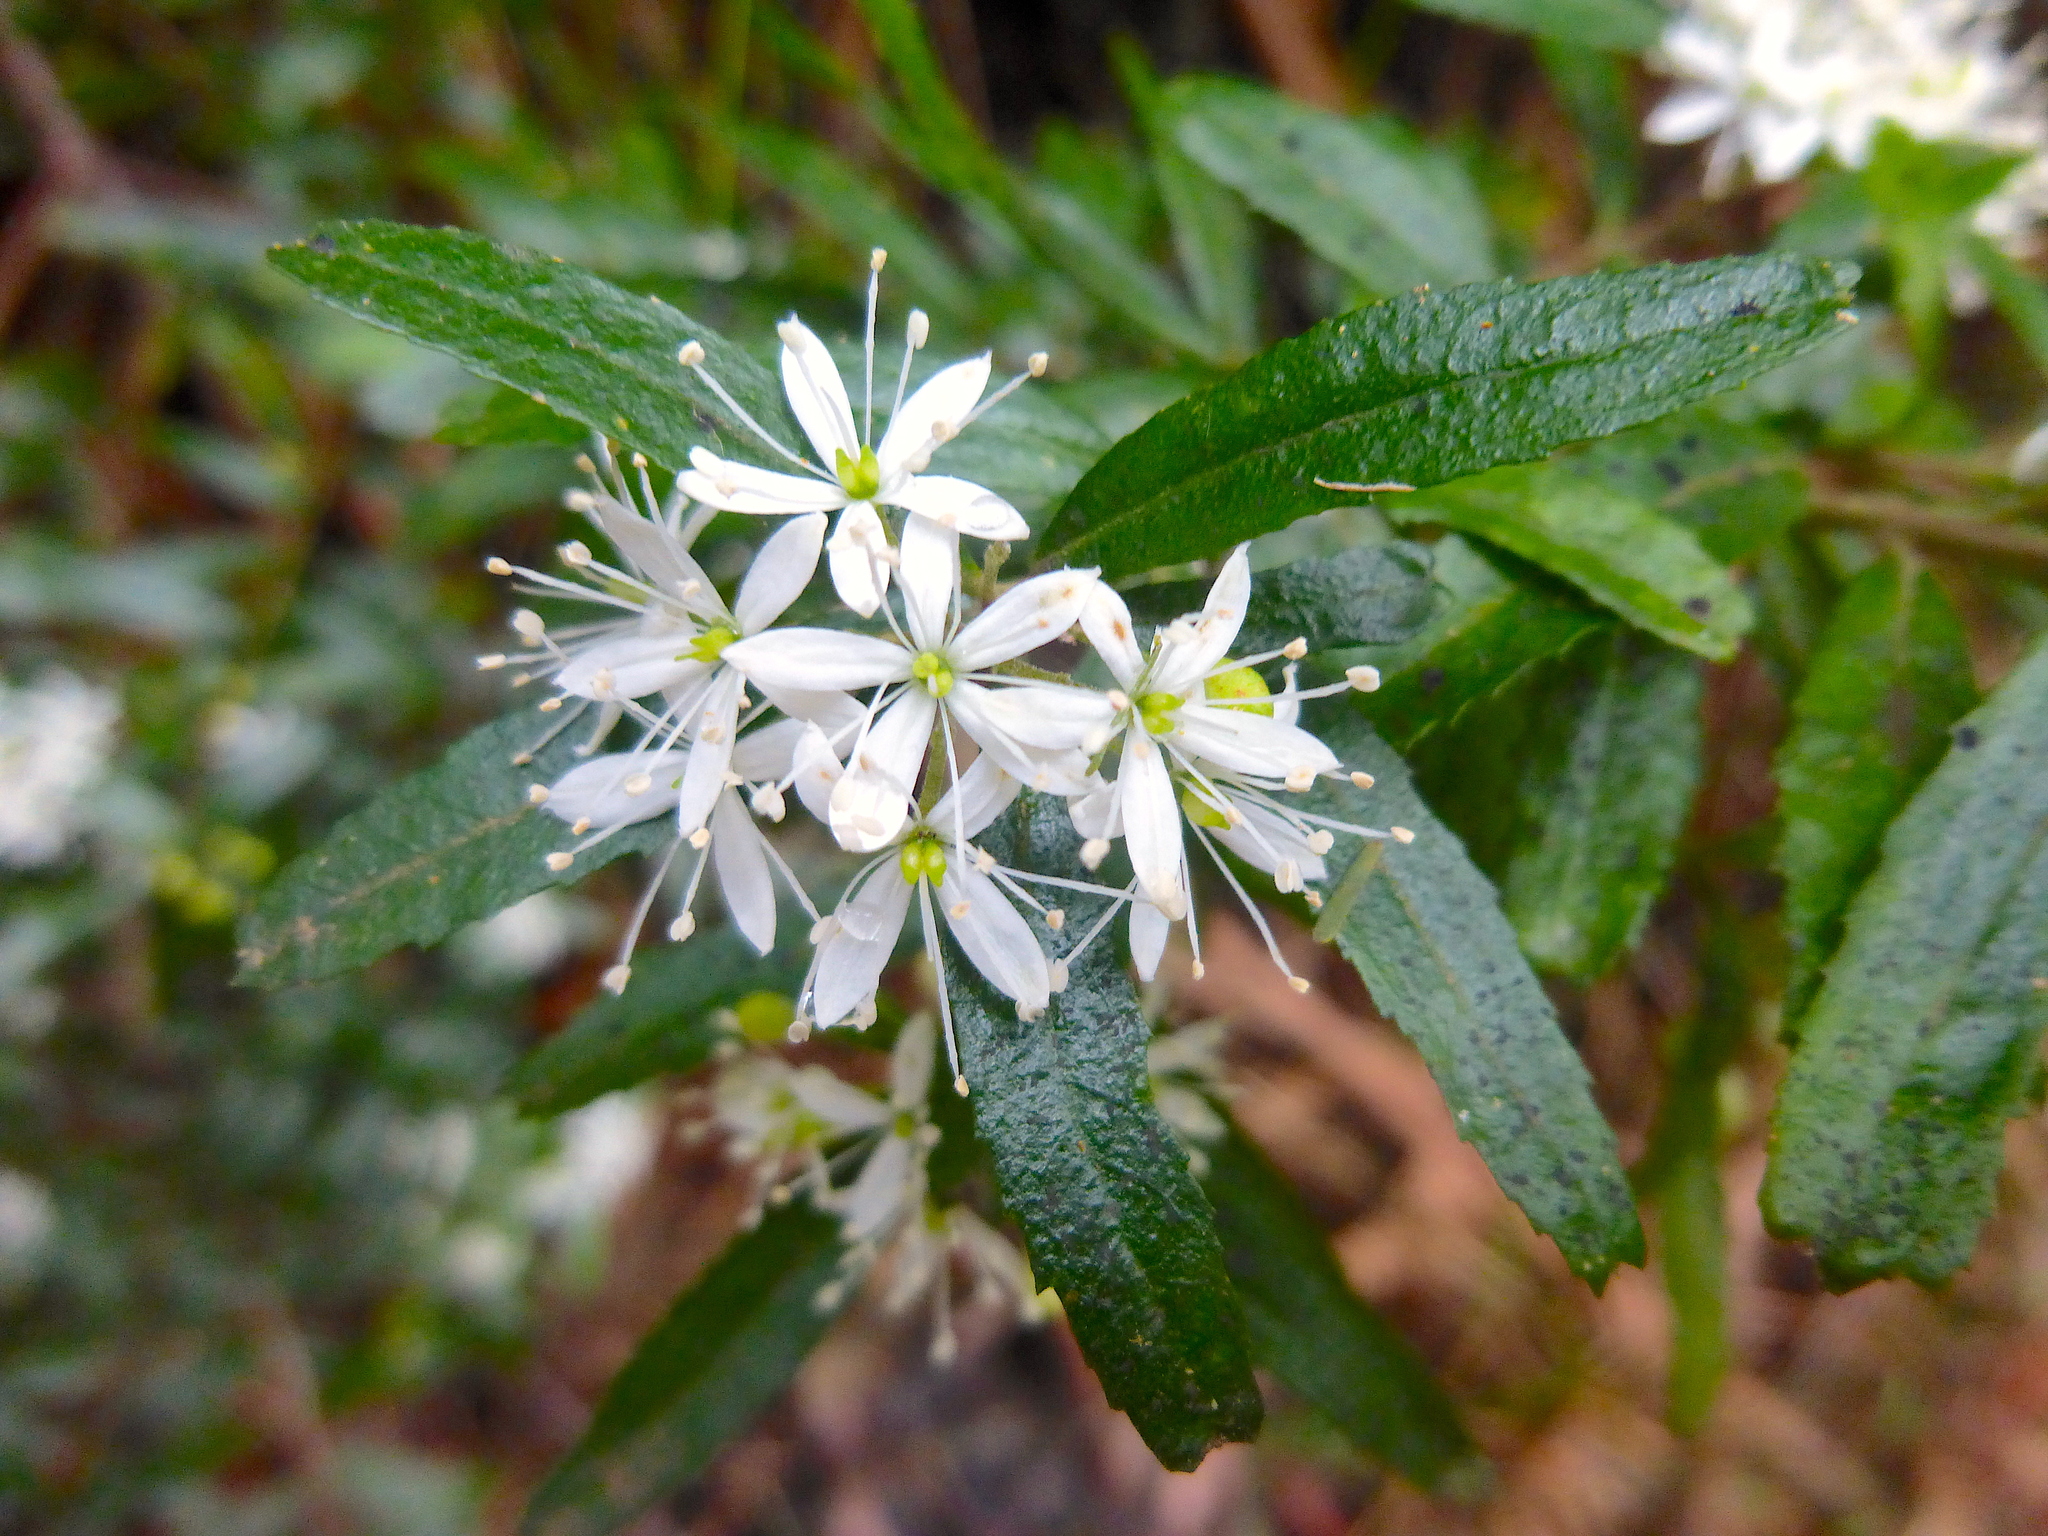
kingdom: Plantae
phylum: Tracheophyta
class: Magnoliopsida
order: Sapindales
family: Rutaceae
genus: Leionema
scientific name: Leionema bilobum
